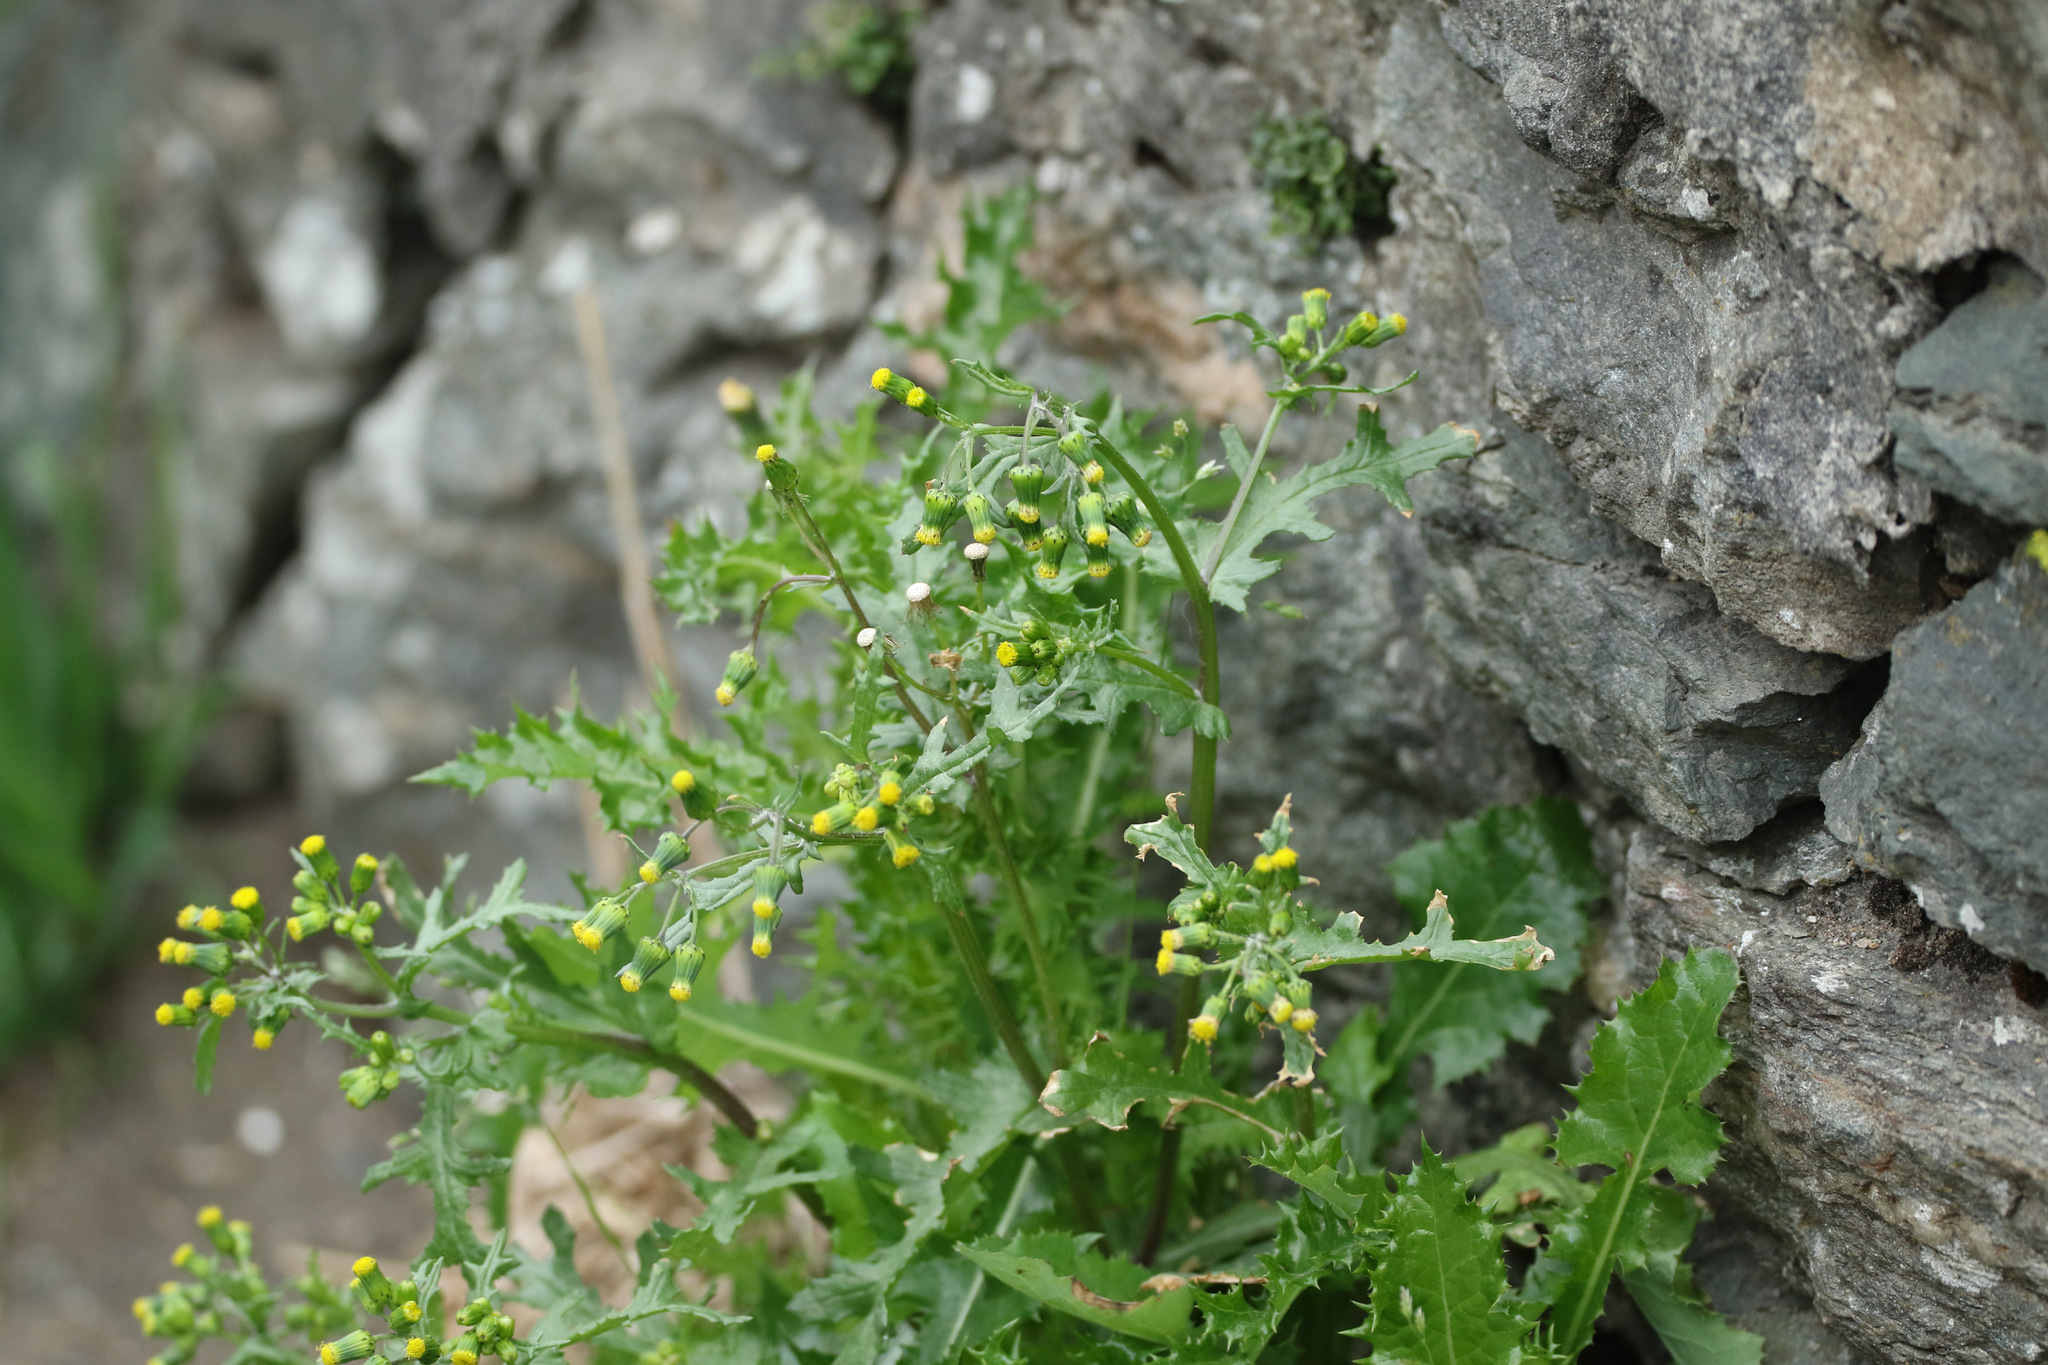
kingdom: Plantae
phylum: Tracheophyta
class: Magnoliopsida
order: Asterales
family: Asteraceae
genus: Senecio
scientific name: Senecio vulgaris
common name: Old-man-in-the-spring
